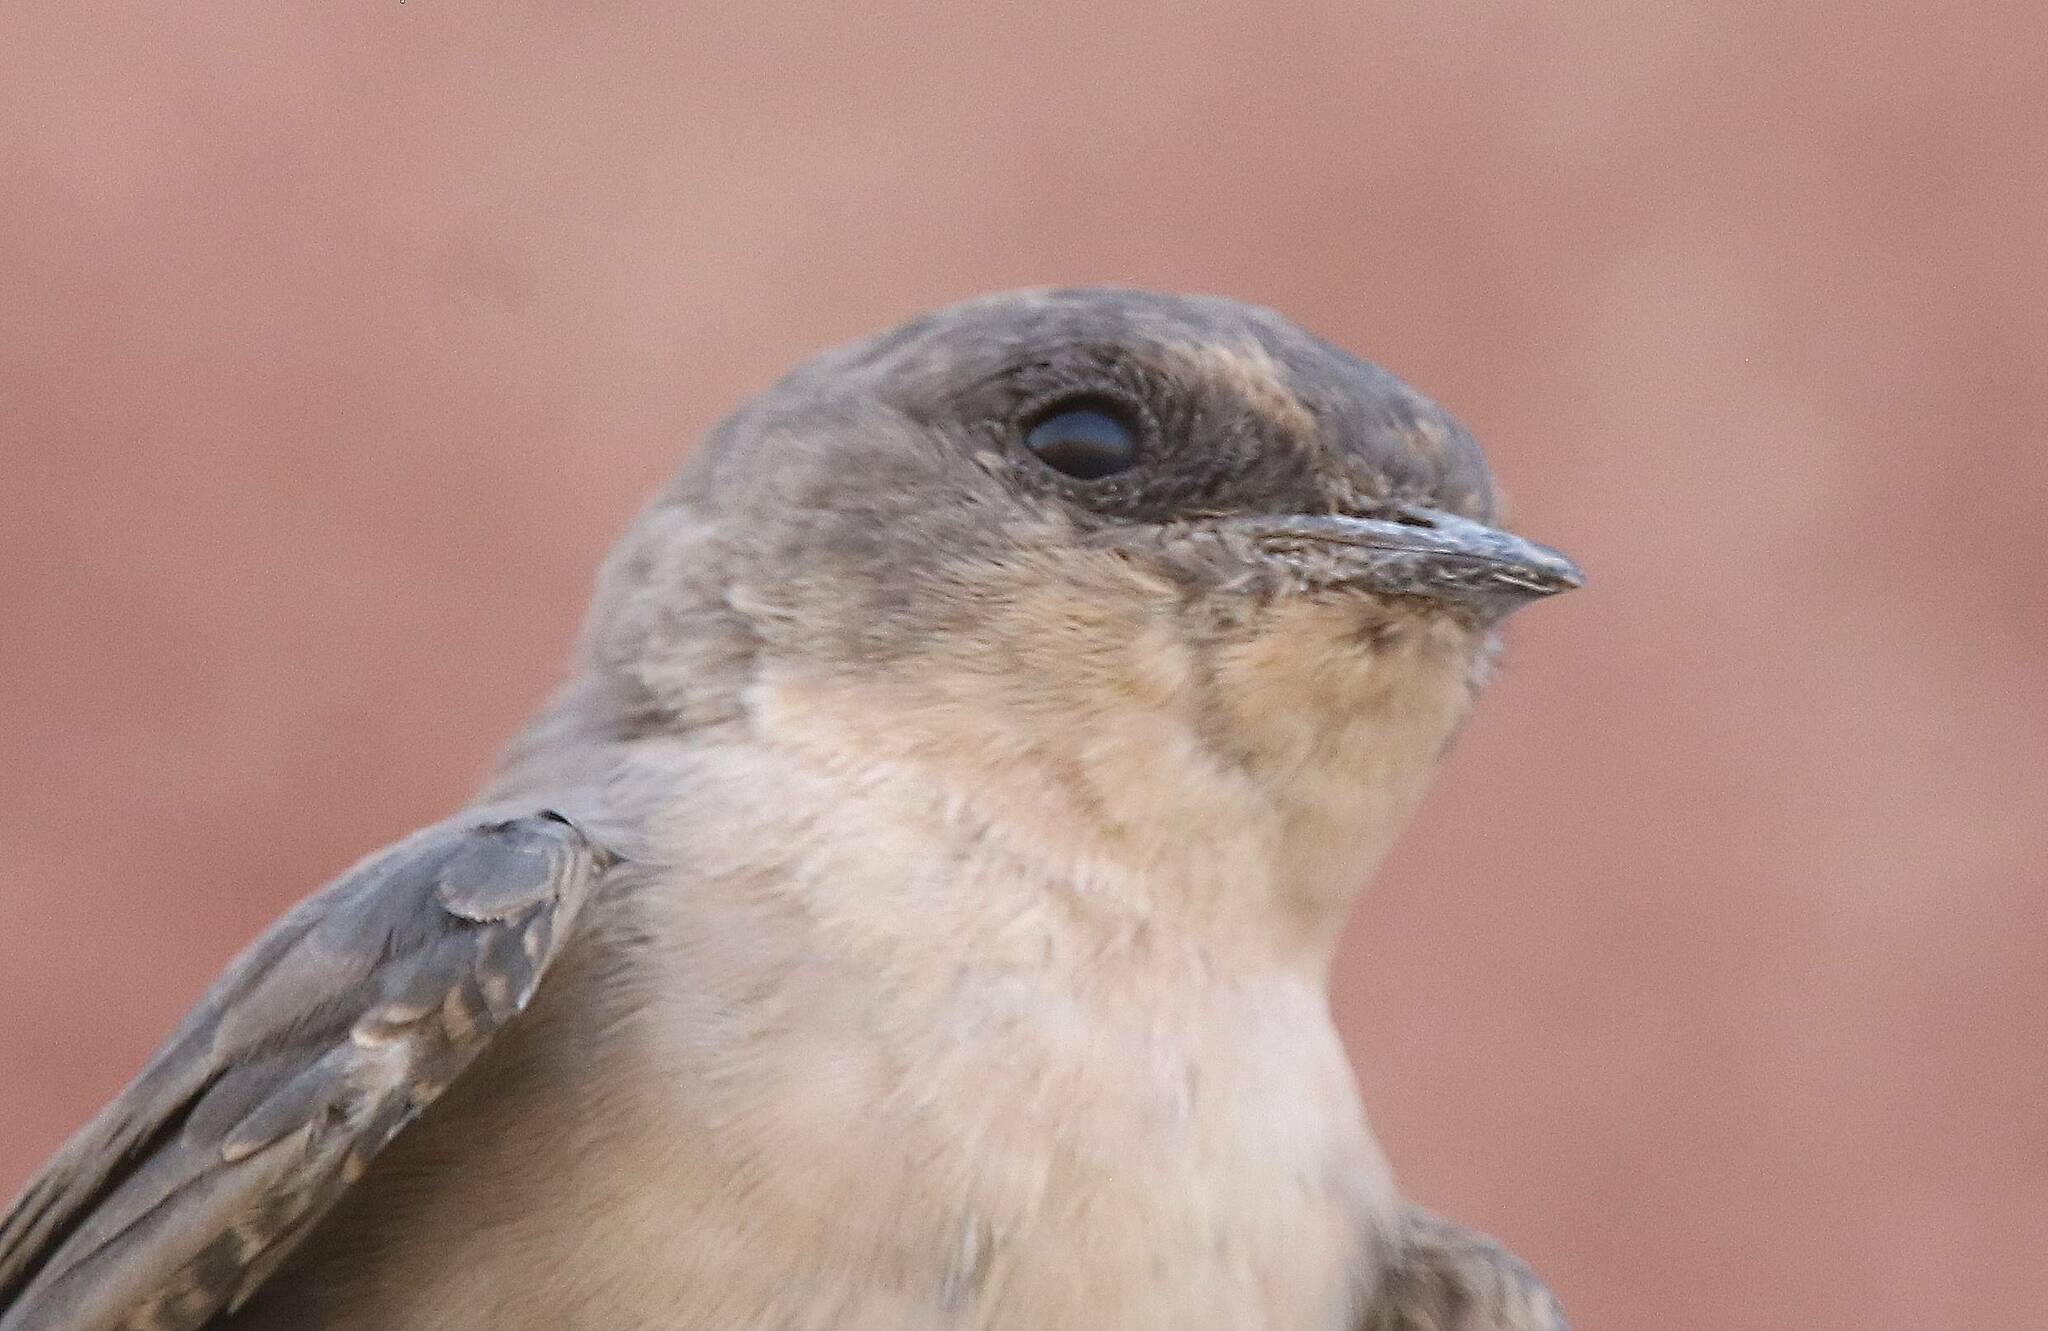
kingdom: Animalia
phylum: Chordata
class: Aves
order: Passeriformes
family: Hirundinidae
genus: Ptyonoprogne
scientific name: Ptyonoprogne fuligula
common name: Rock martin
